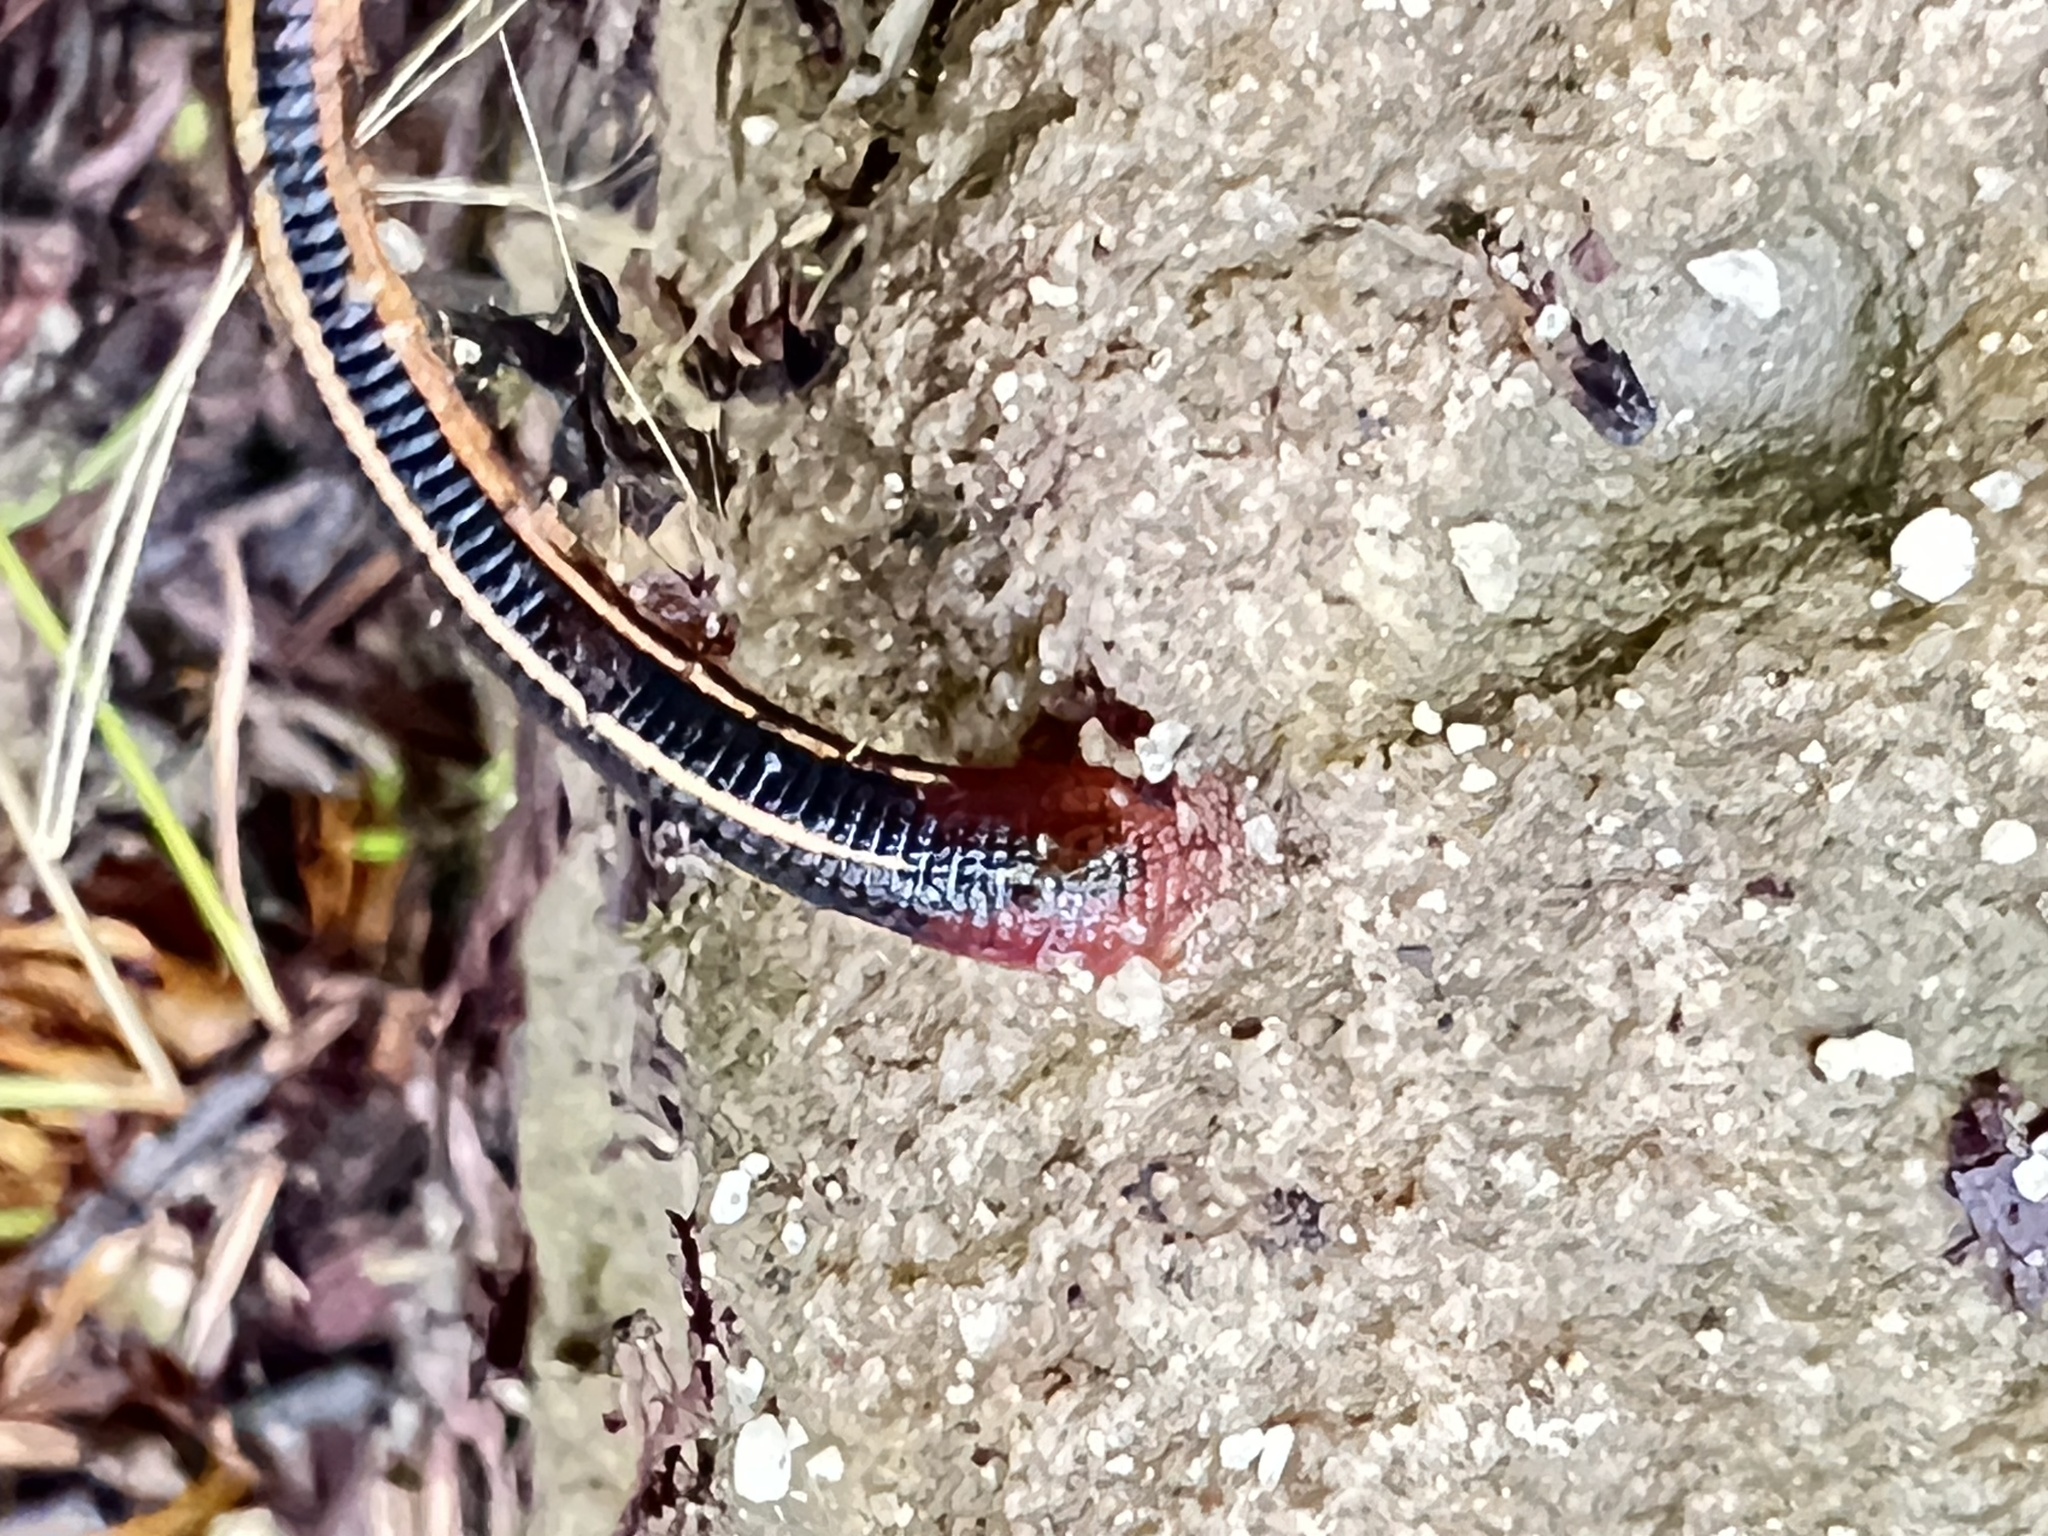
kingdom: Animalia
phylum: Annelida
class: Clitellata
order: Arhynchobdellida
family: Haemadipsidae
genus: Chtonobdella
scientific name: Chtonobdella limbata
